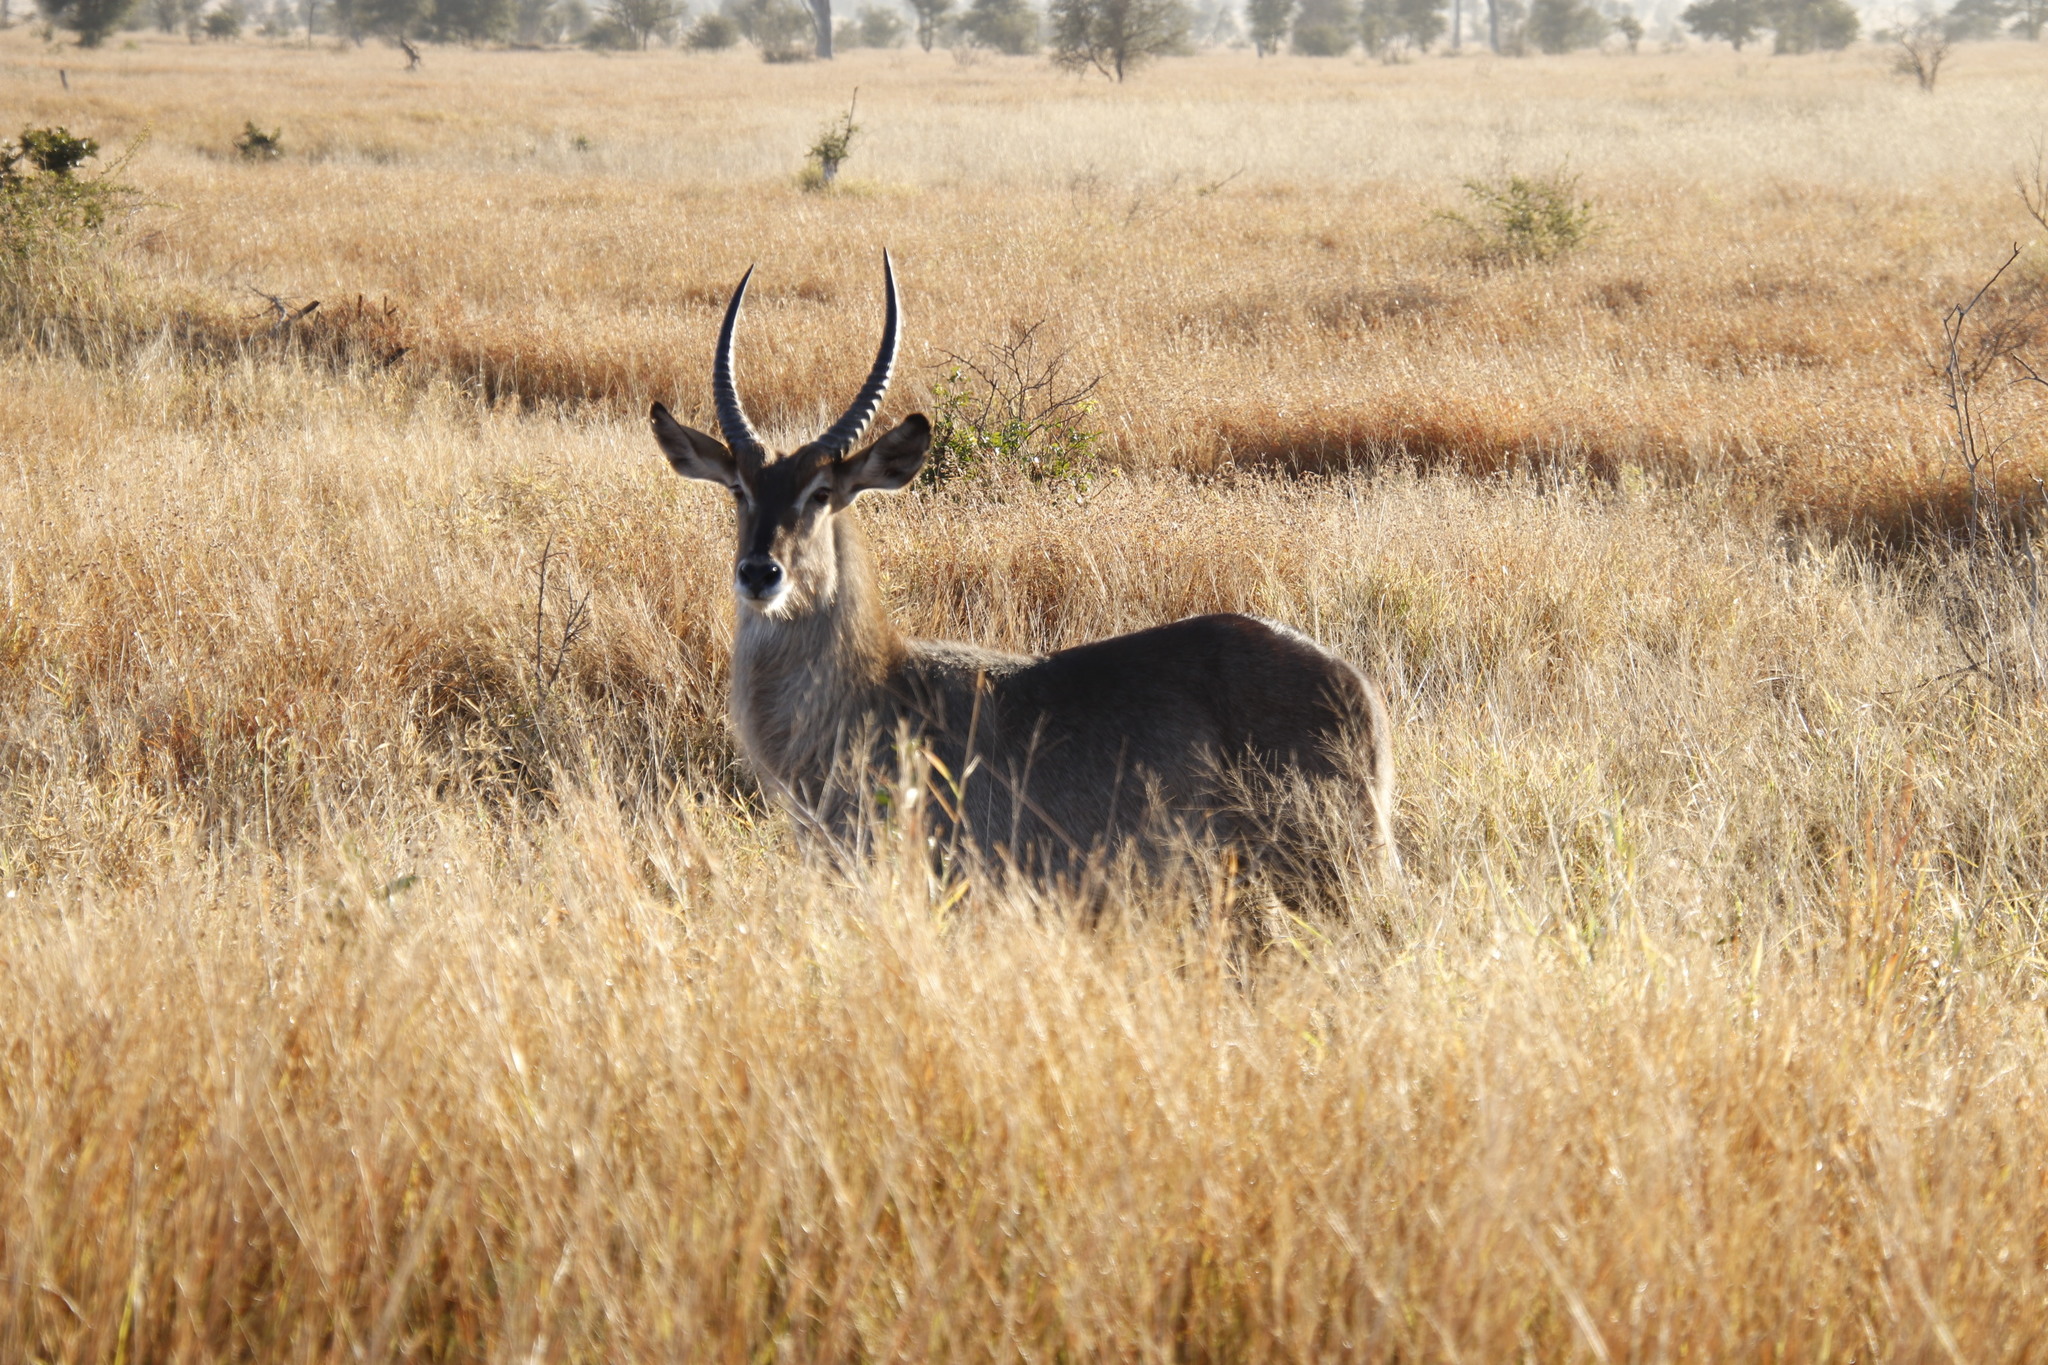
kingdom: Animalia
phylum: Chordata
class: Mammalia
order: Artiodactyla
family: Bovidae
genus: Kobus
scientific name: Kobus ellipsiprymnus
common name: Waterbuck
